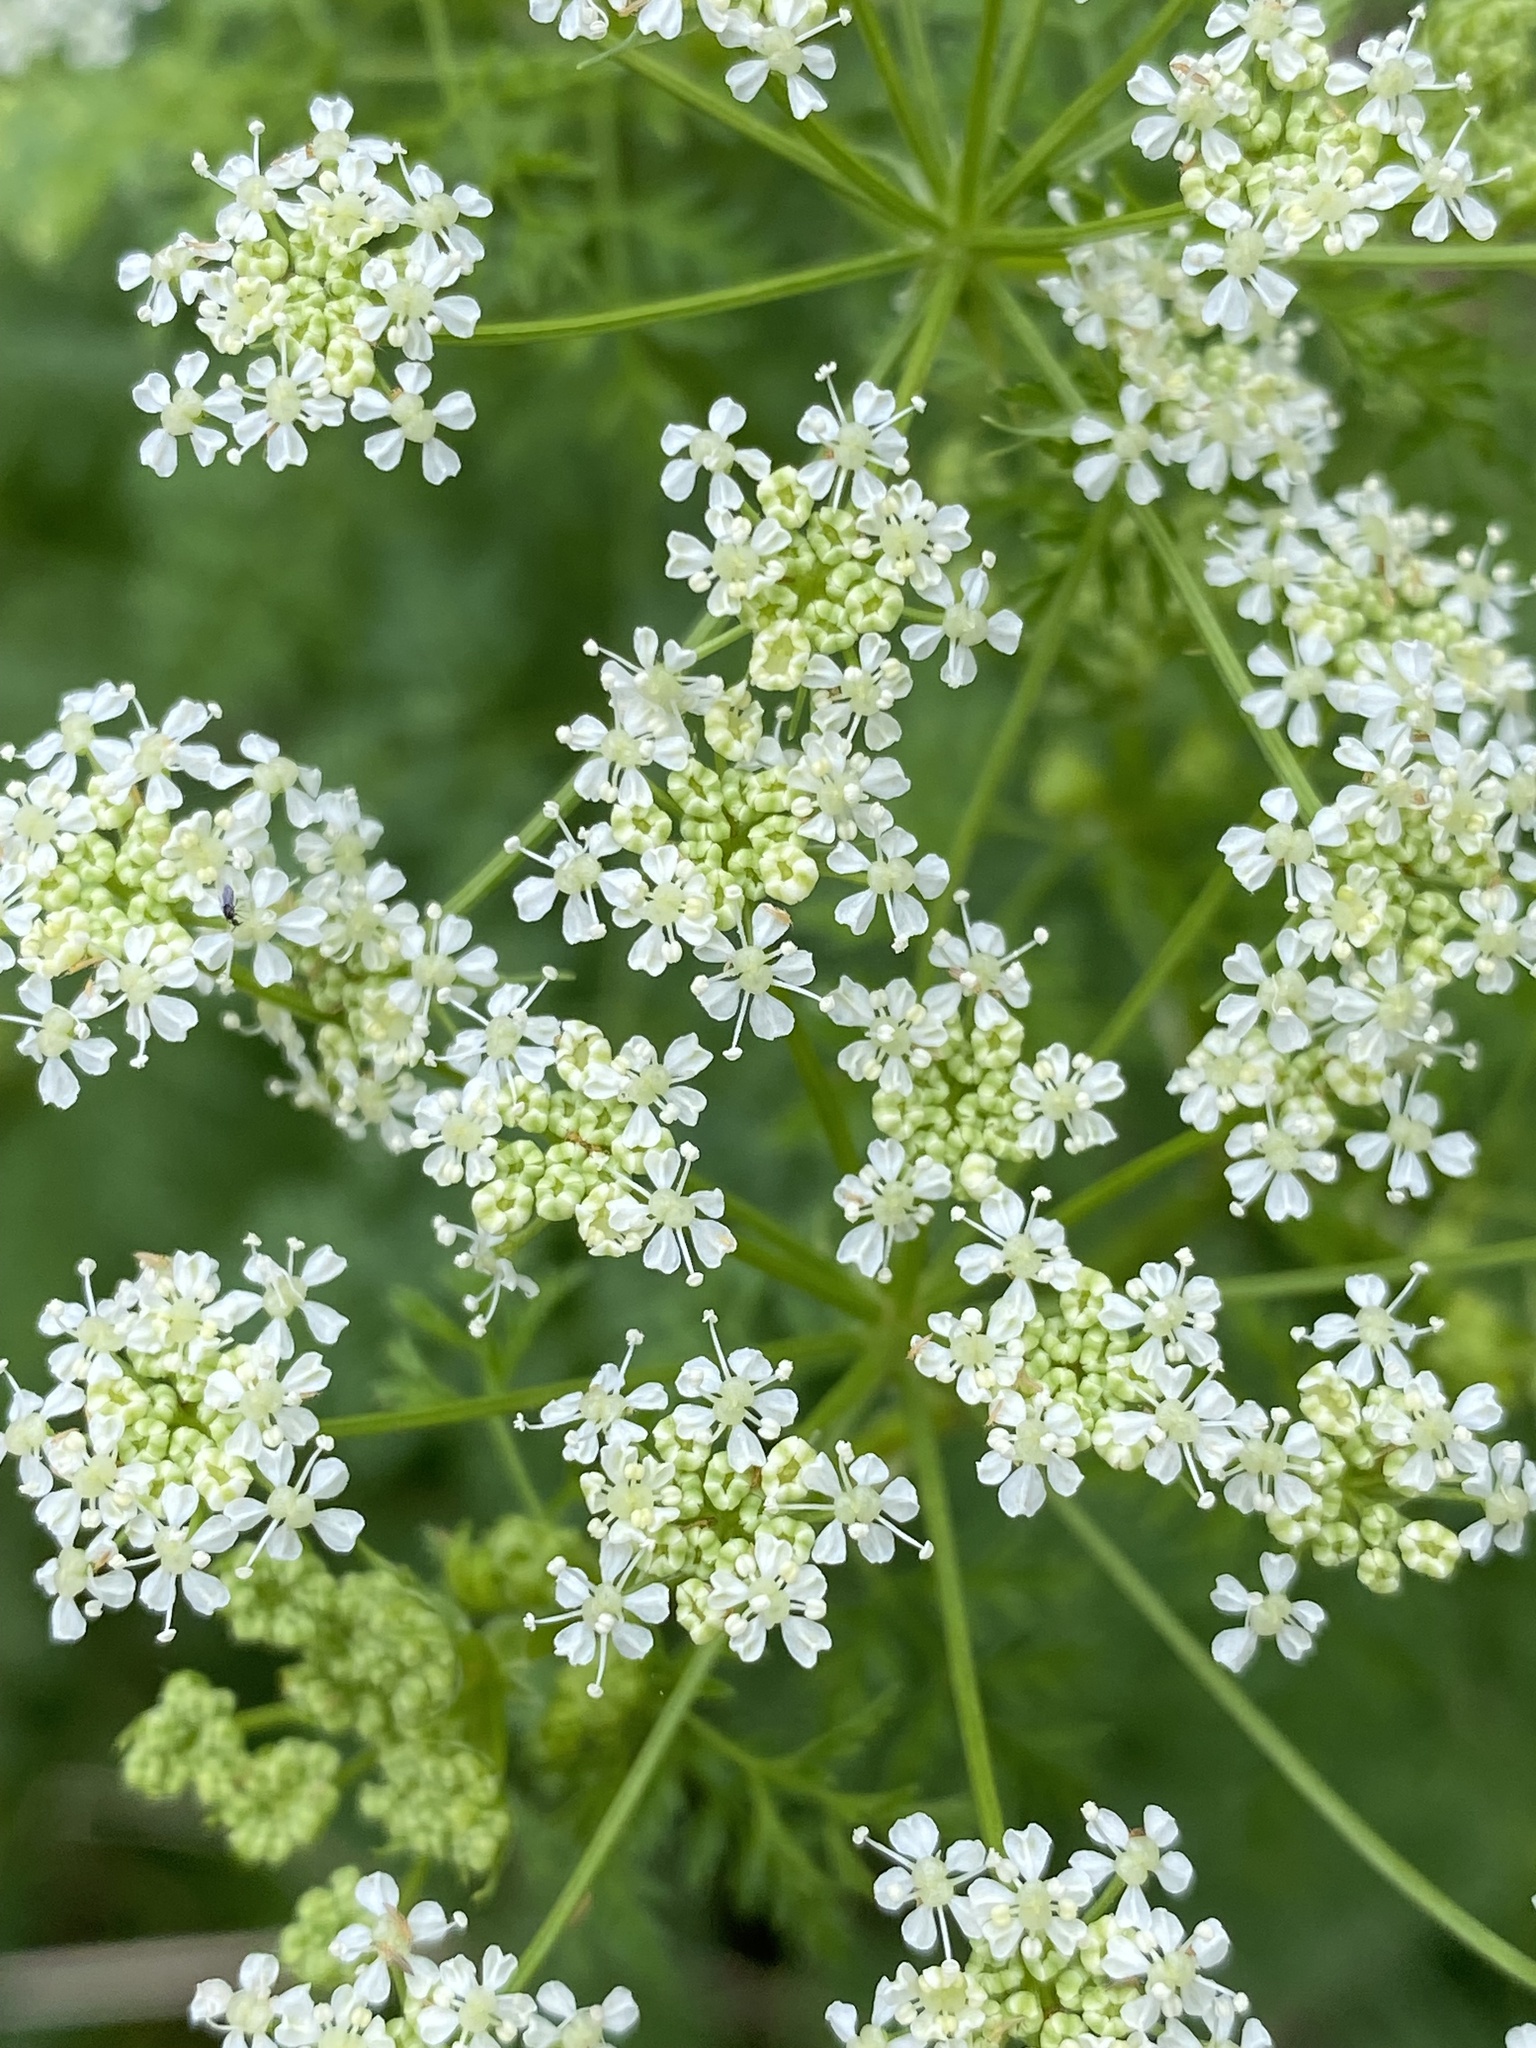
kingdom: Plantae
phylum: Tracheophyta
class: Magnoliopsida
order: Apiales
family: Apiaceae
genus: Conium
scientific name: Conium maculatum
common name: Hemlock
